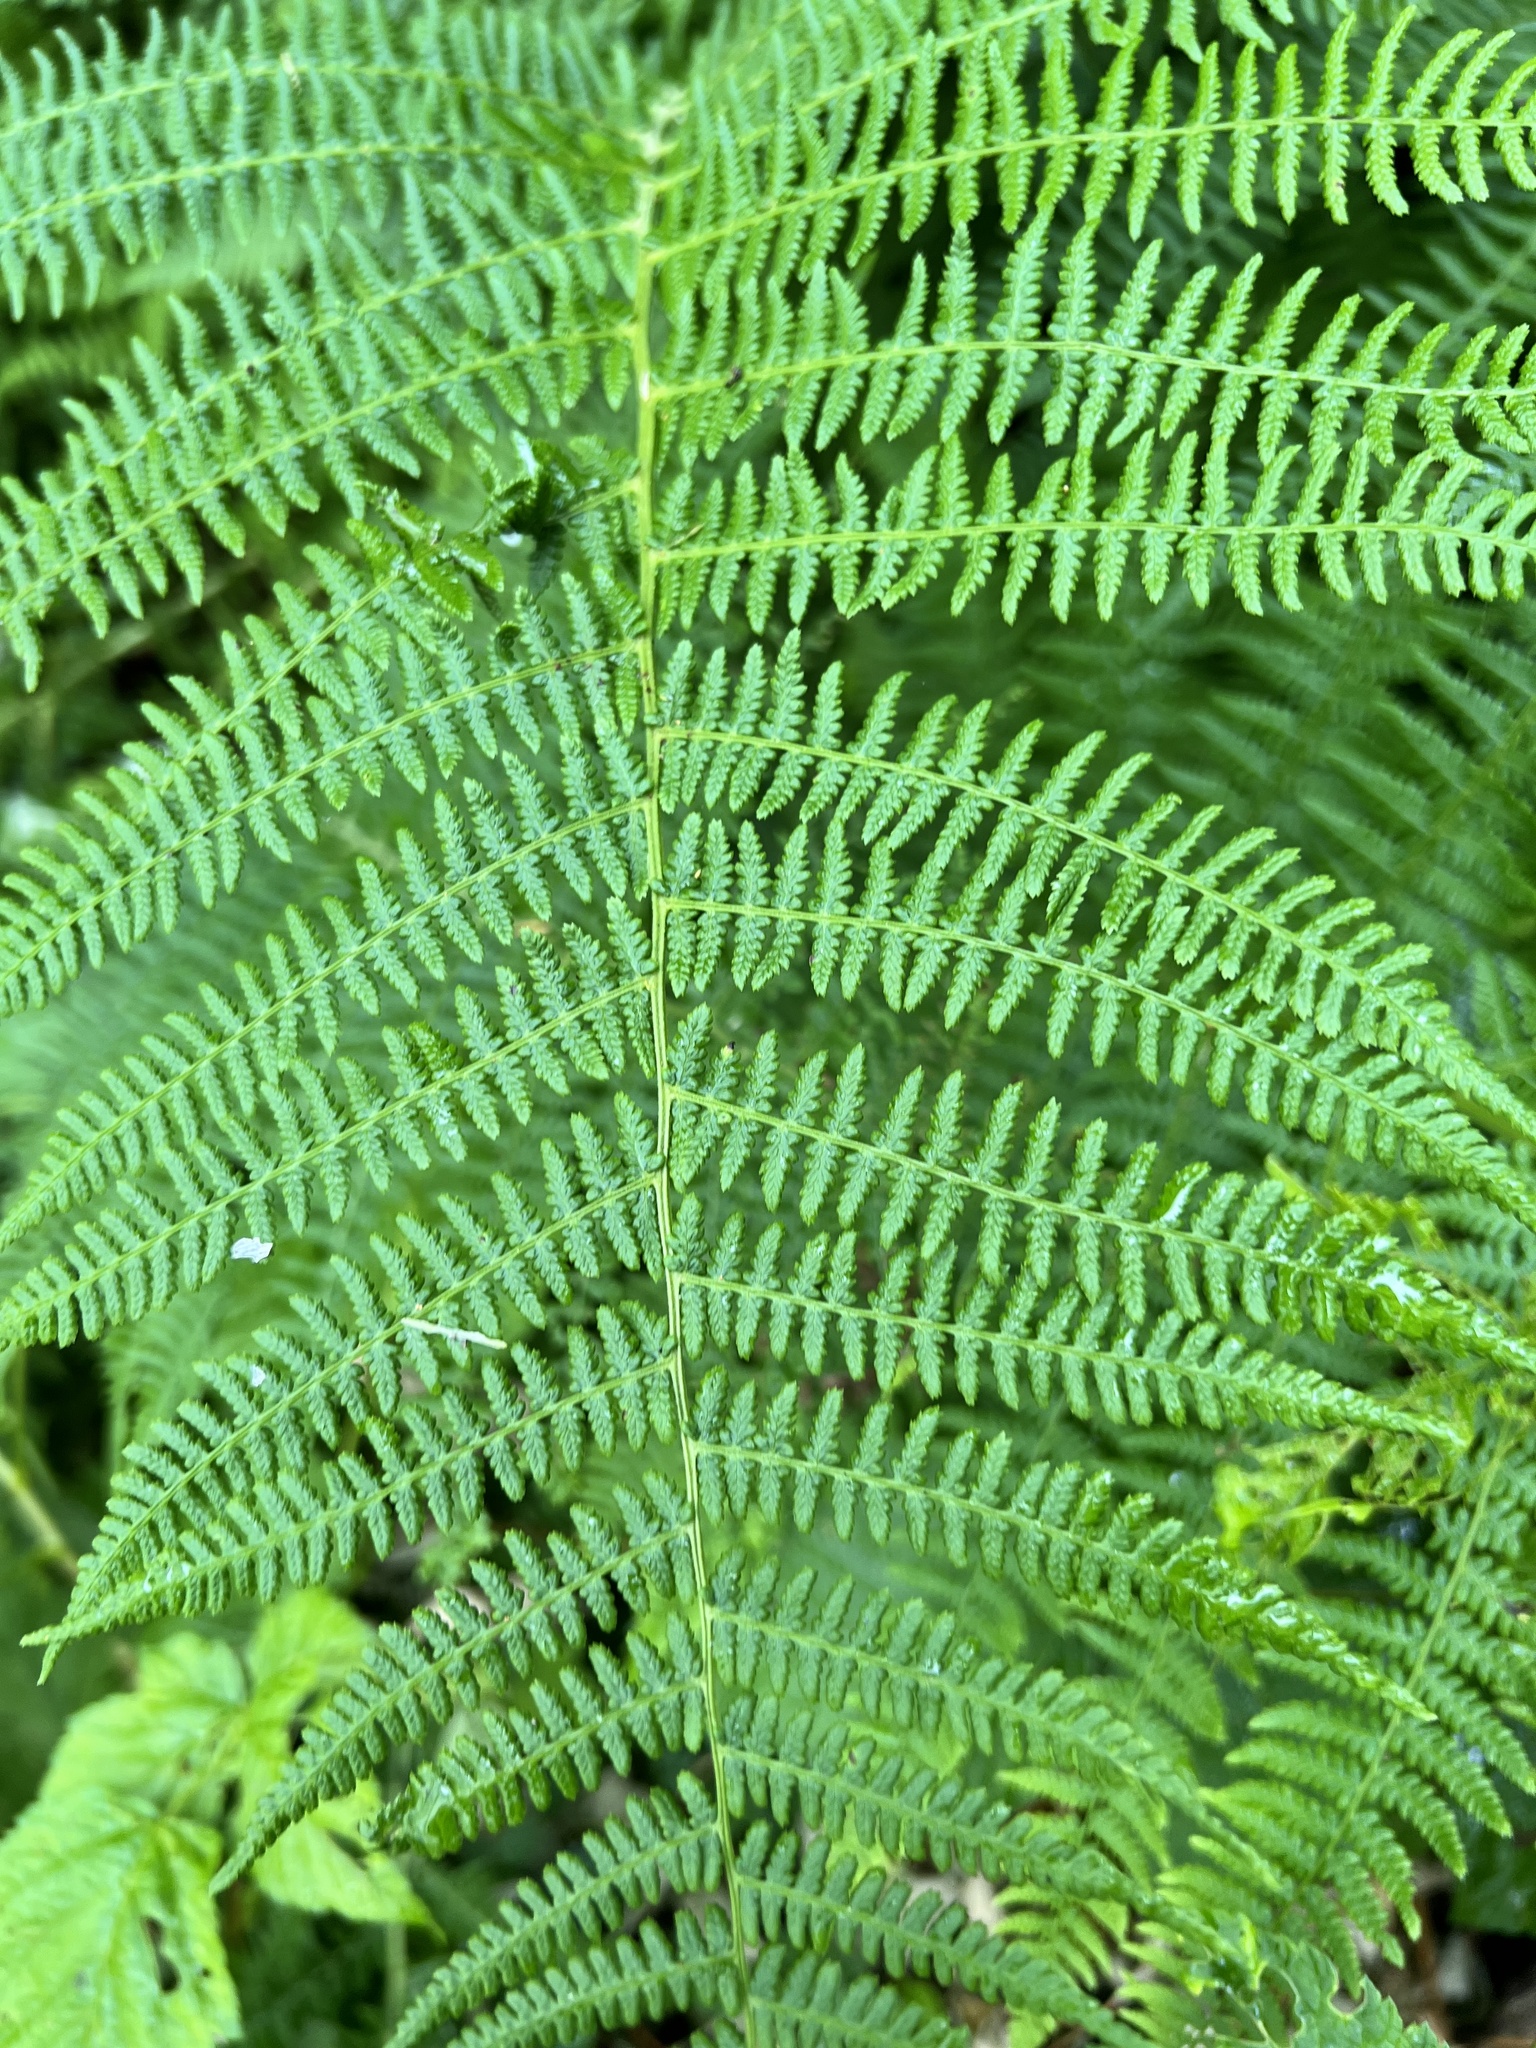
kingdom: Plantae
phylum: Tracheophyta
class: Polypodiopsida
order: Polypodiales
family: Athyriaceae
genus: Athyrium
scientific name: Athyrium filix-femina
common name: Lady fern
